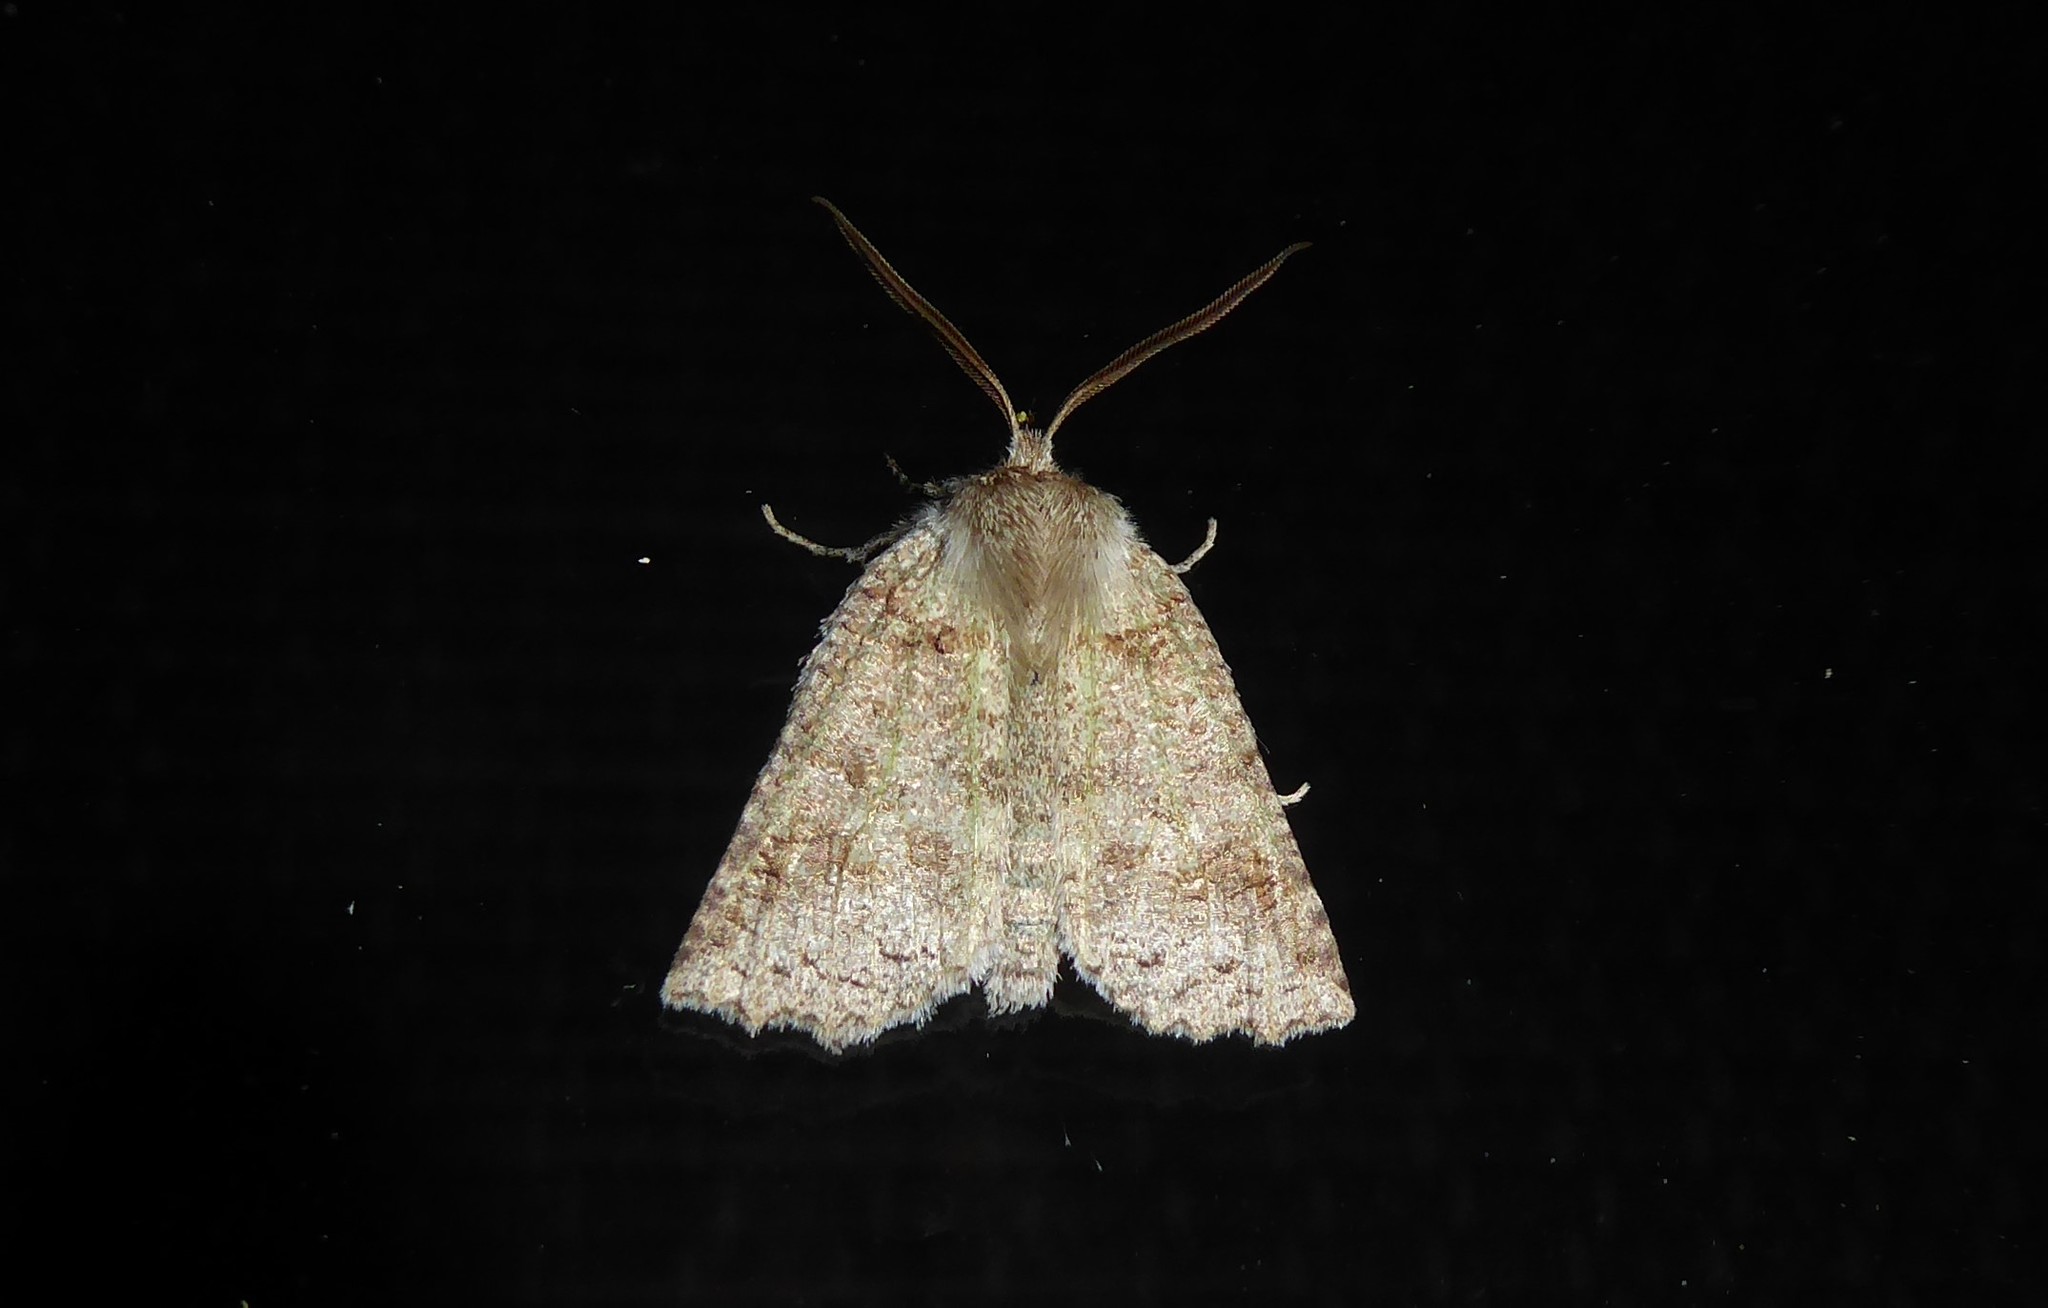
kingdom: Animalia
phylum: Arthropoda
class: Insecta
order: Lepidoptera
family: Geometridae
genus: Declana
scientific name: Declana floccosa
